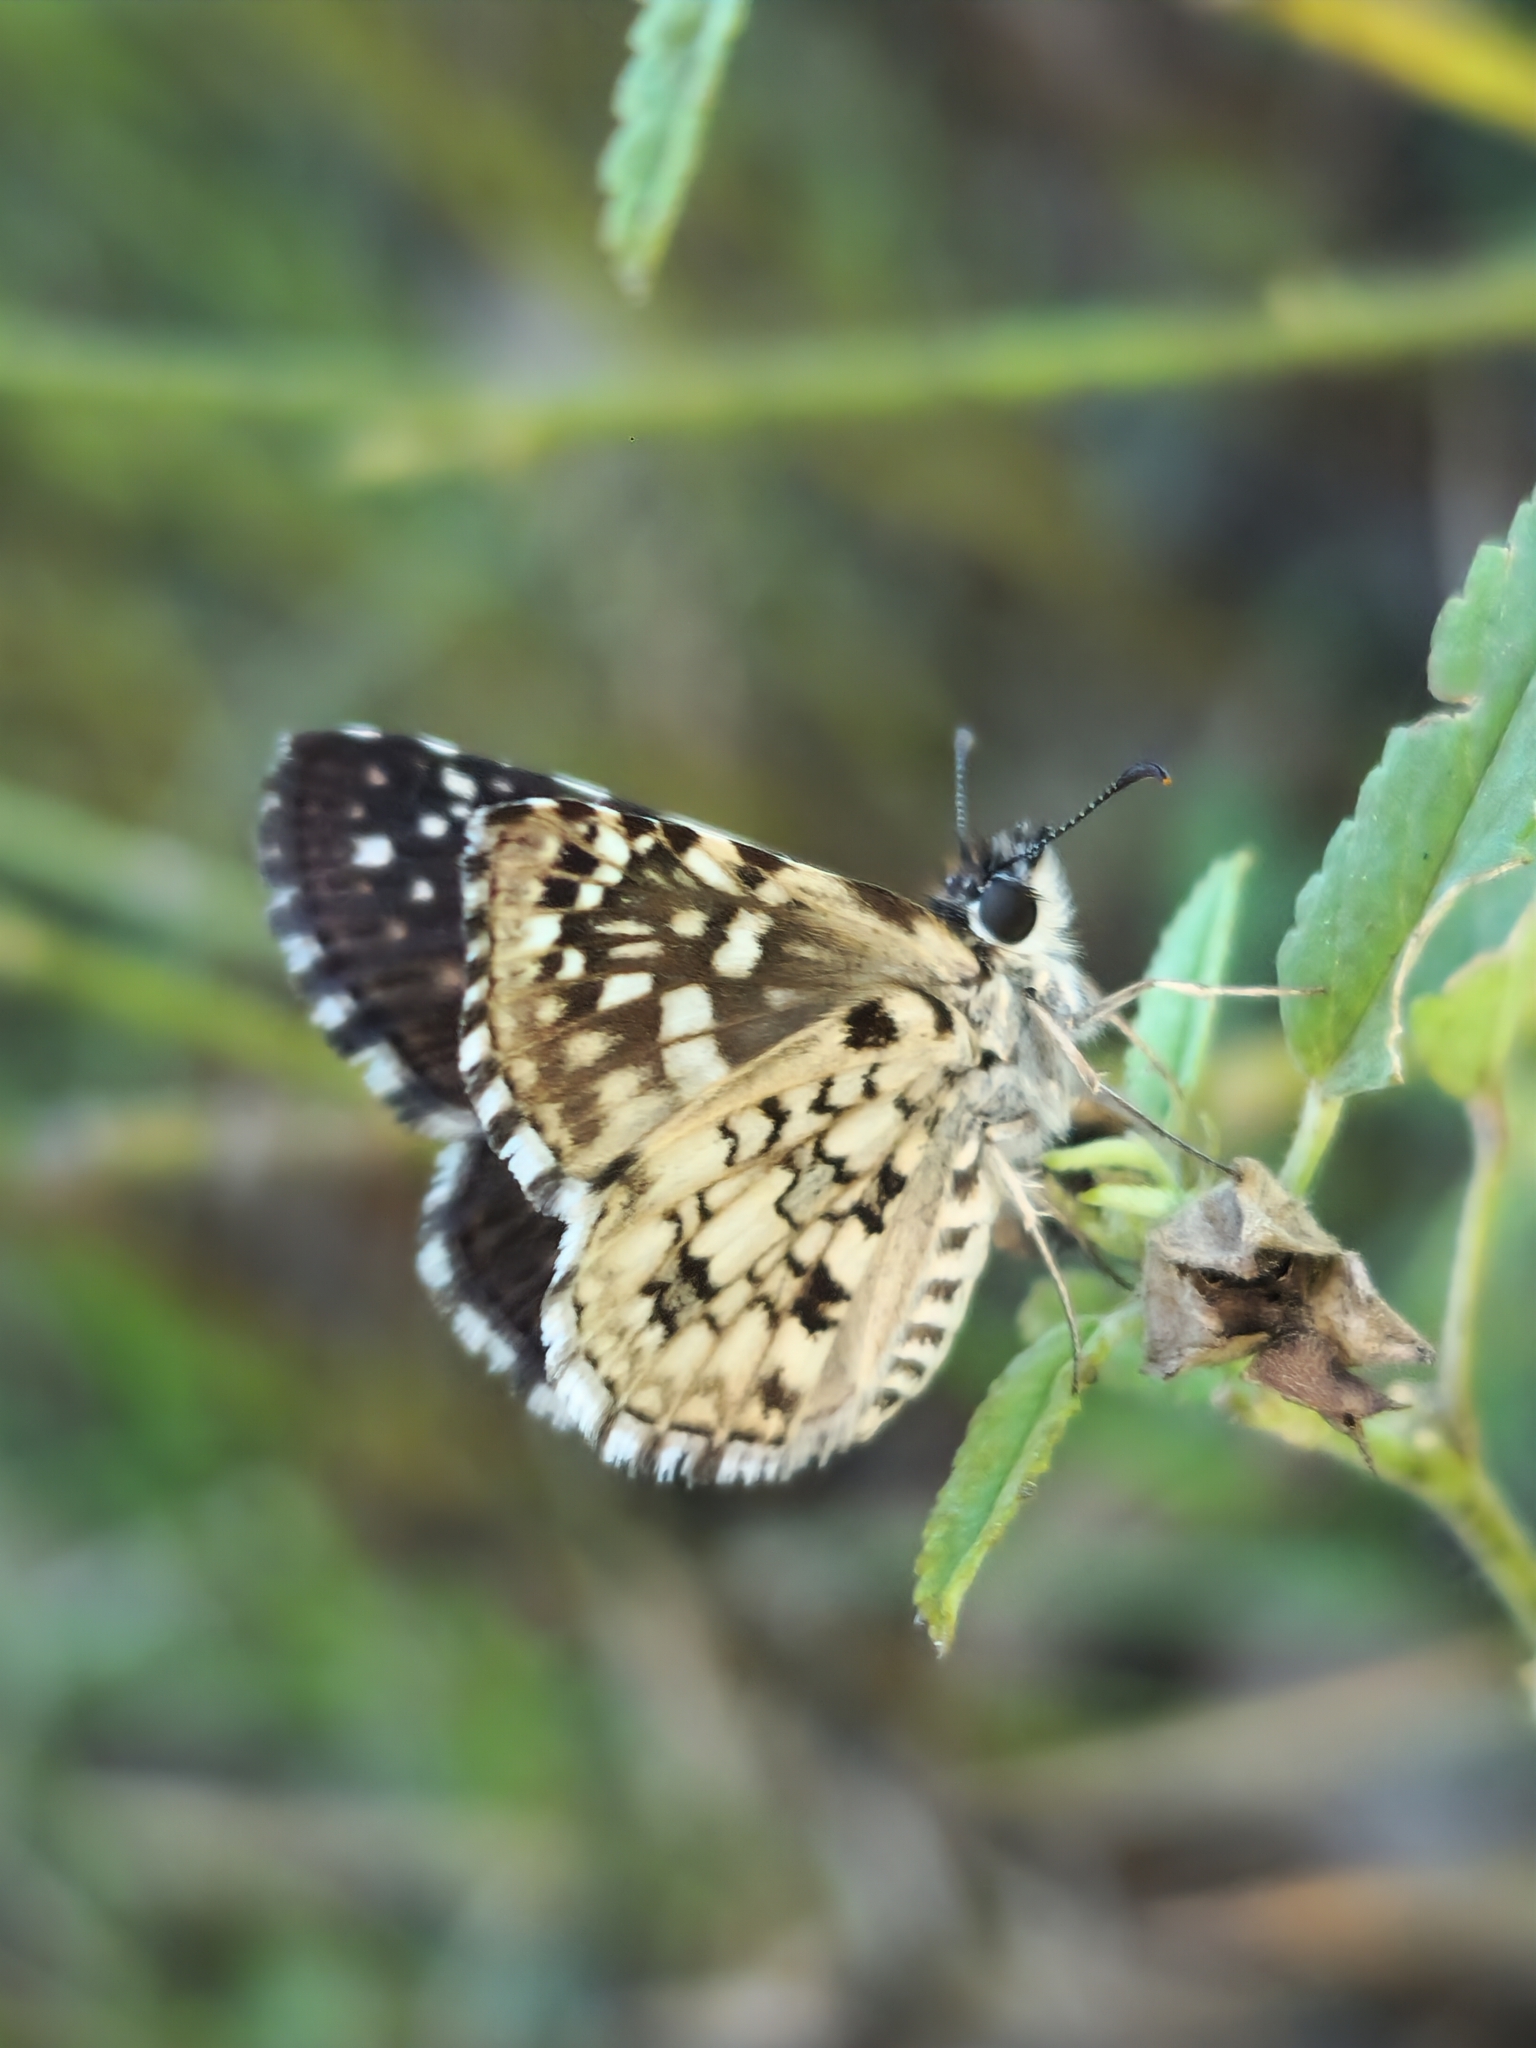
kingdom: Animalia
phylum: Arthropoda
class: Insecta
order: Lepidoptera
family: Hesperiidae
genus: Pyrgus
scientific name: Pyrgus oileus
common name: Tropical checkered-skipper
